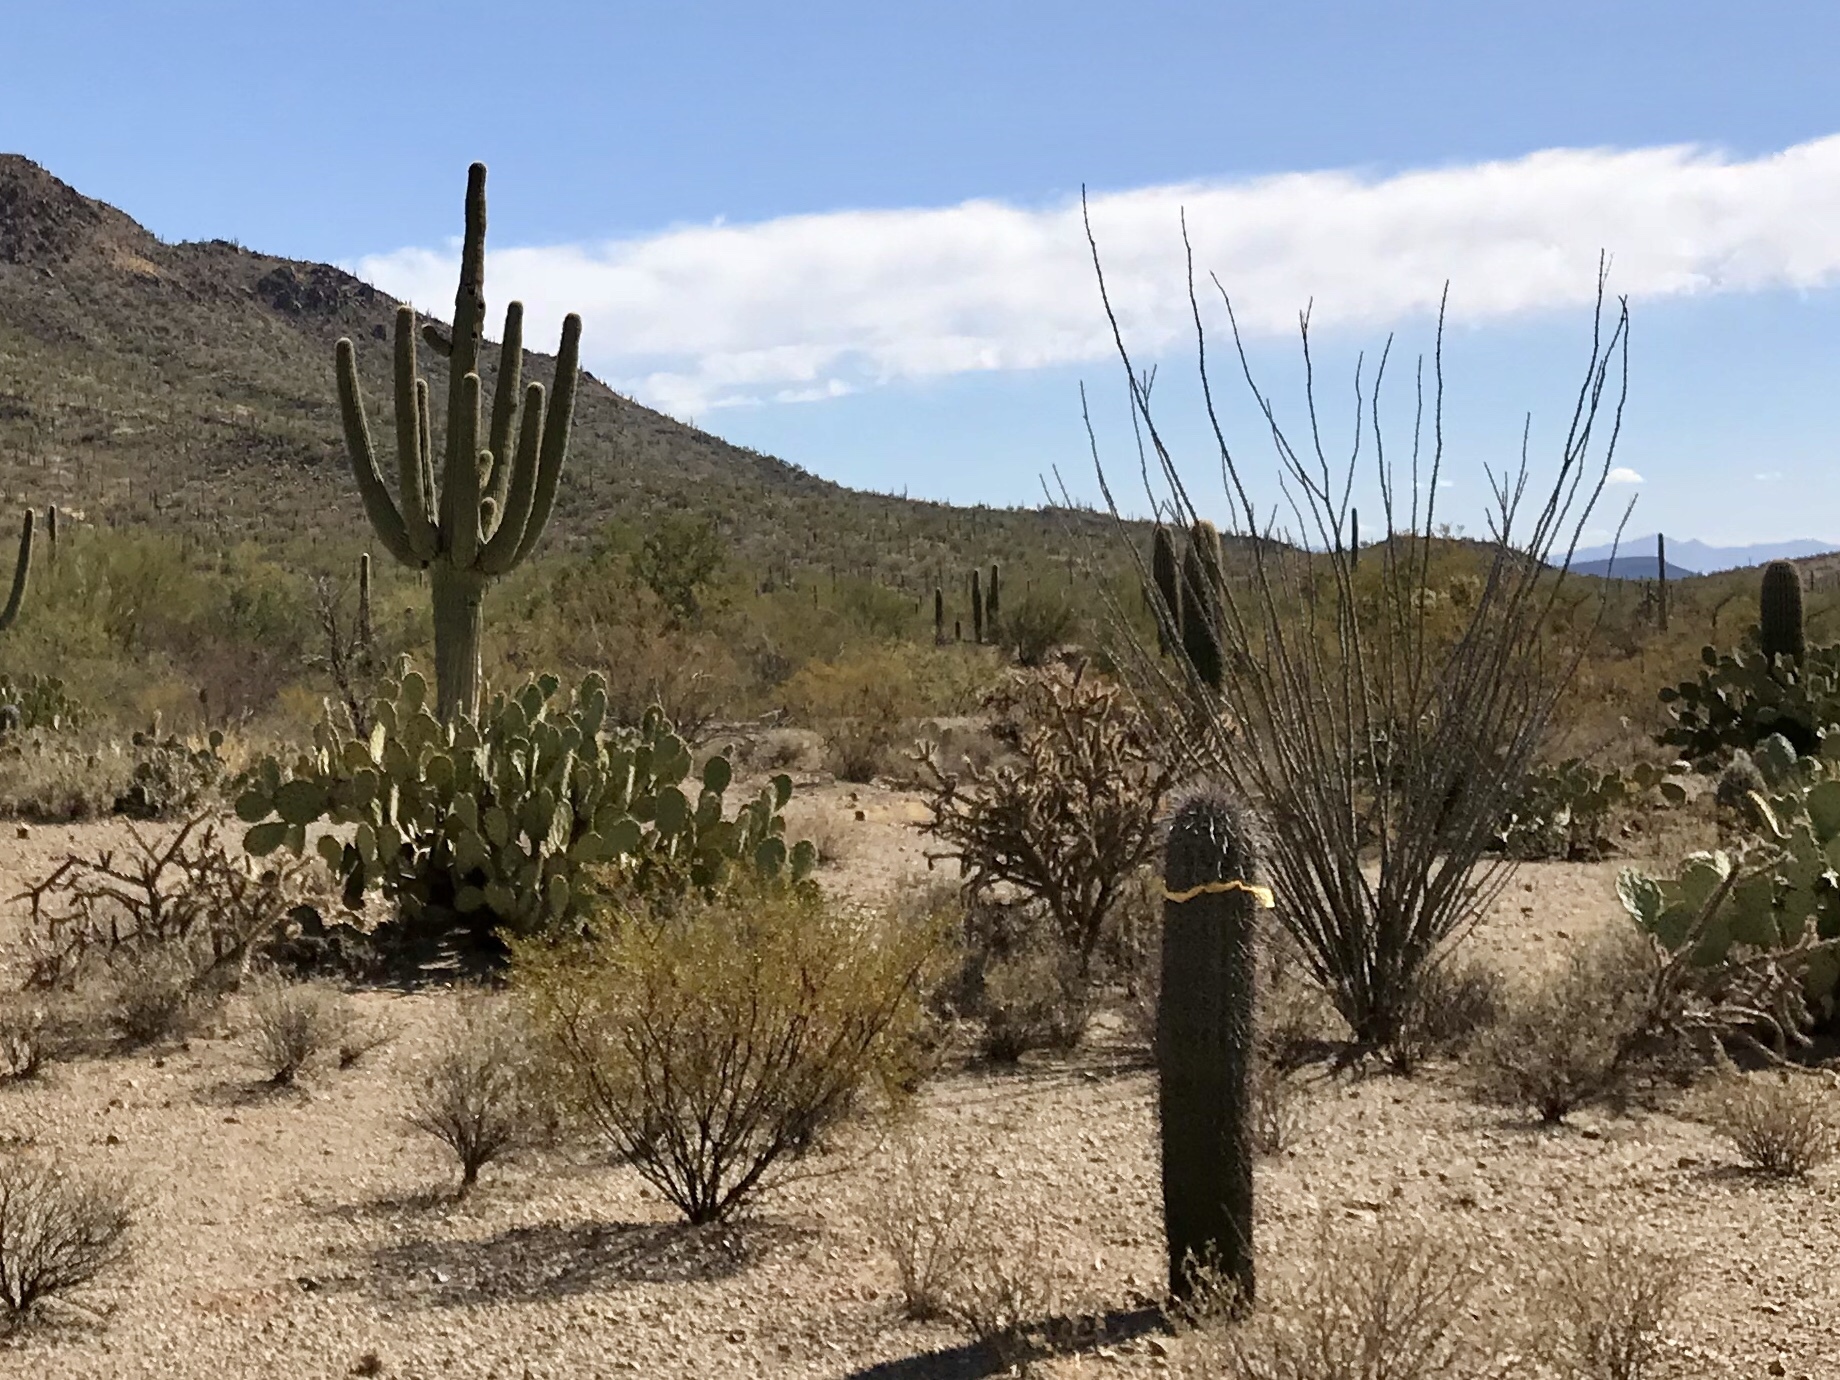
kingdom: Plantae
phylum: Tracheophyta
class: Magnoliopsida
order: Caryophyllales
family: Cactaceae
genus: Carnegiea
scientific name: Carnegiea gigantea
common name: Saguaro
